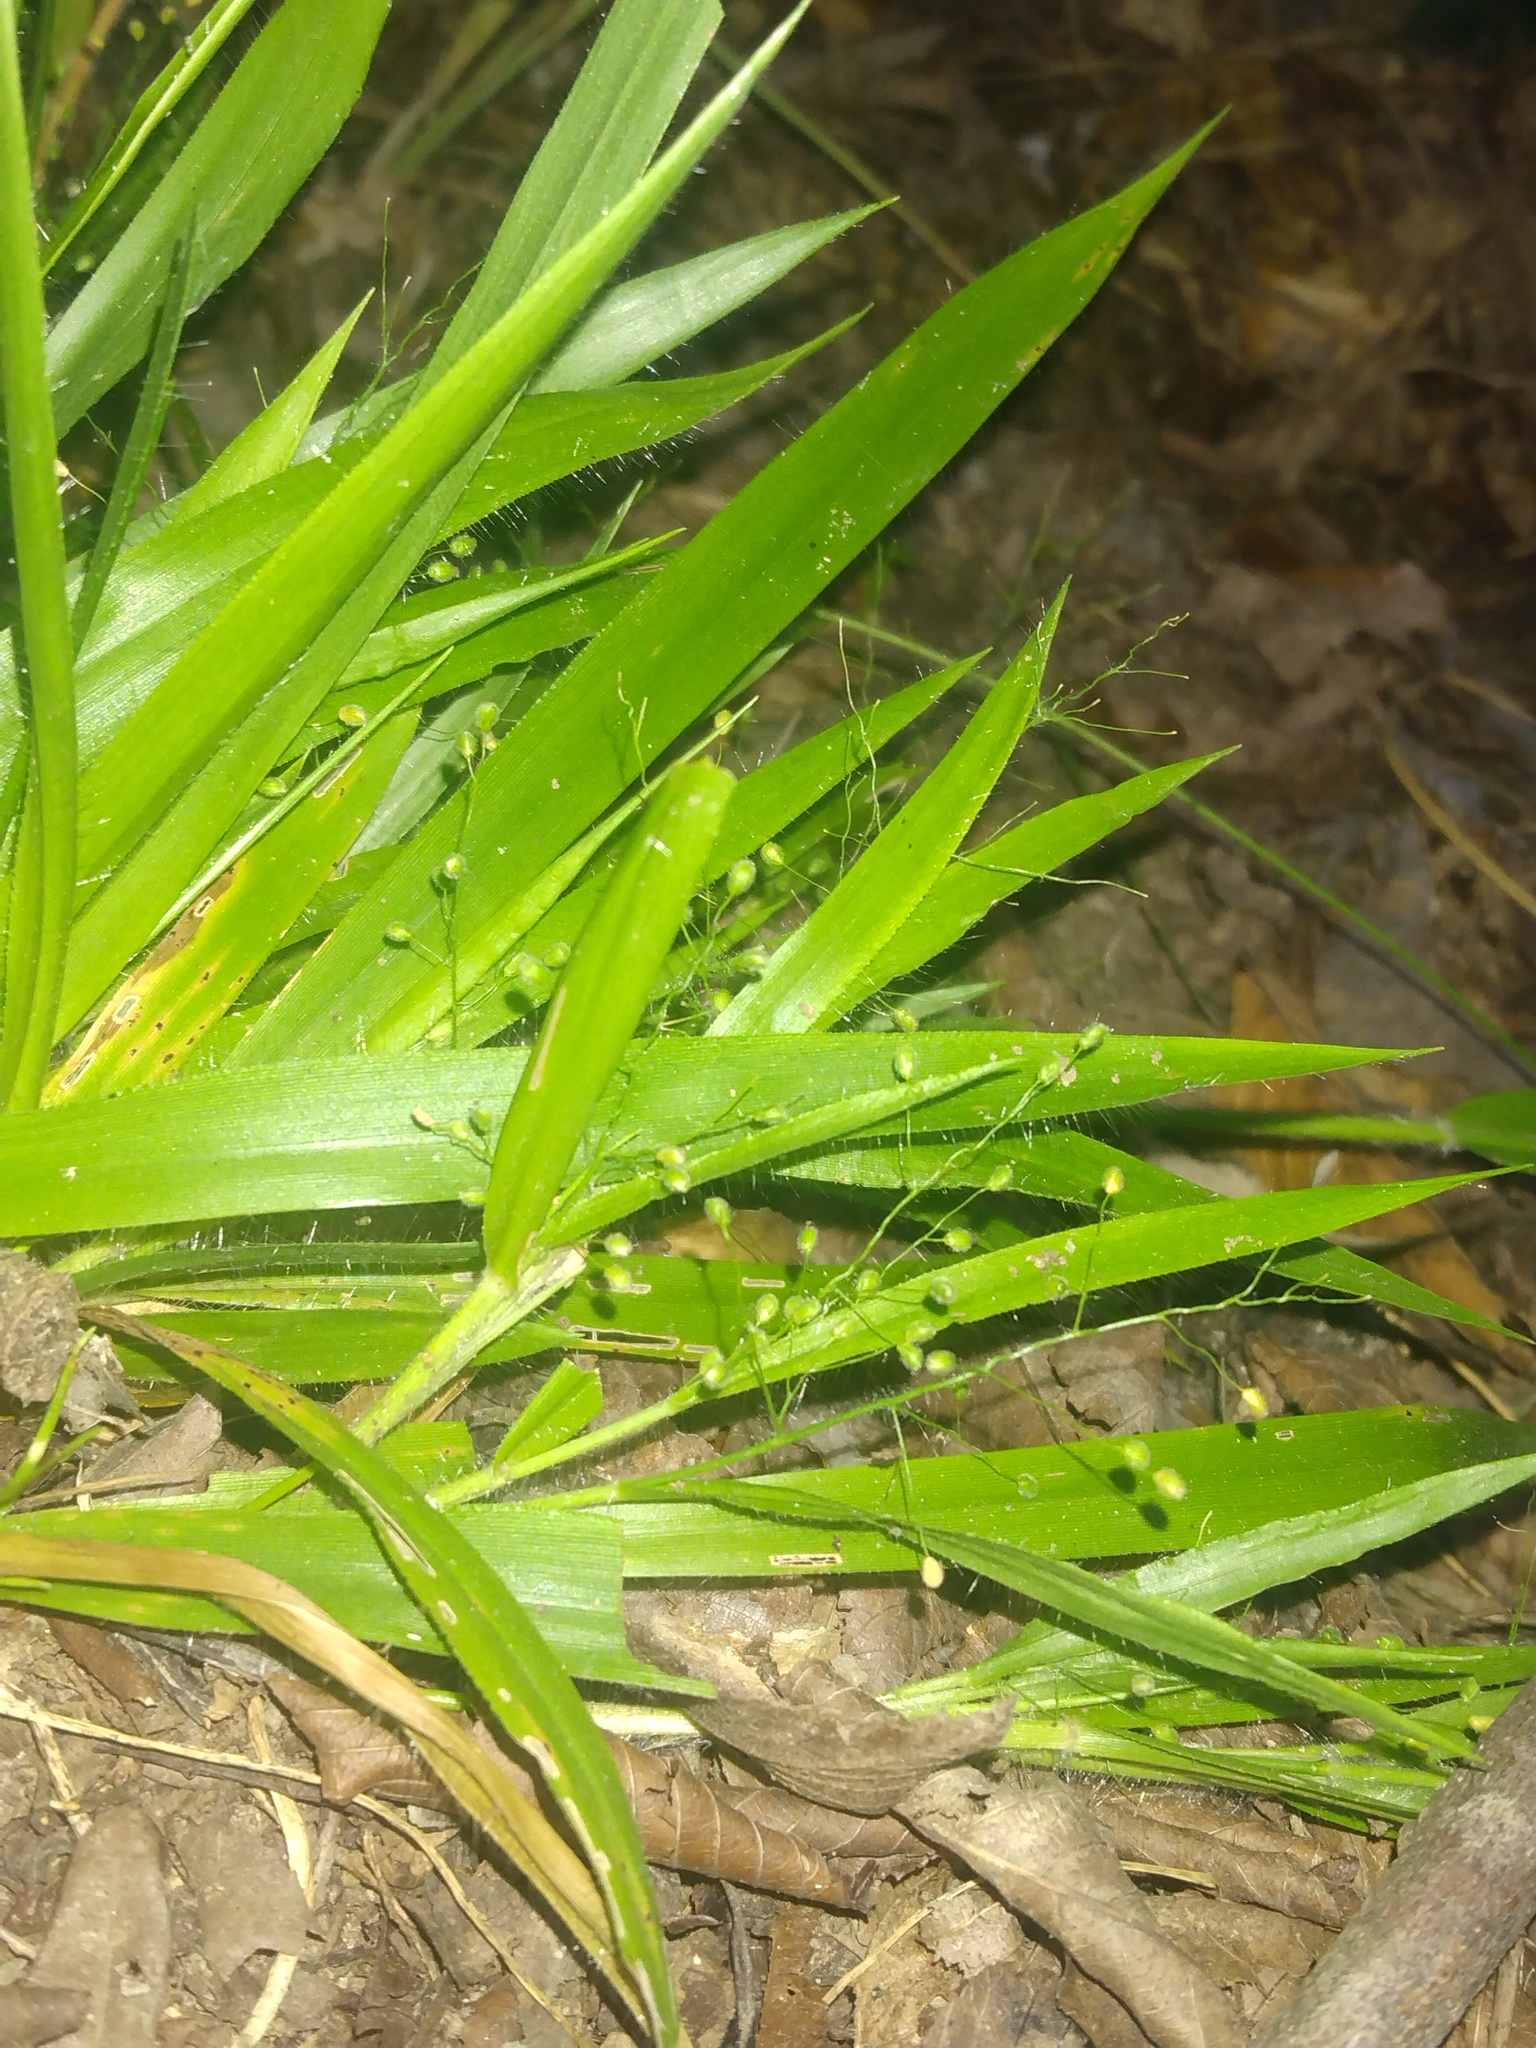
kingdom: Plantae
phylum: Tracheophyta
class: Liliopsida
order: Poales
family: Poaceae
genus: Dichanthelium
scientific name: Dichanthelium laxiflorum
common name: Soft-tuft panic grass
